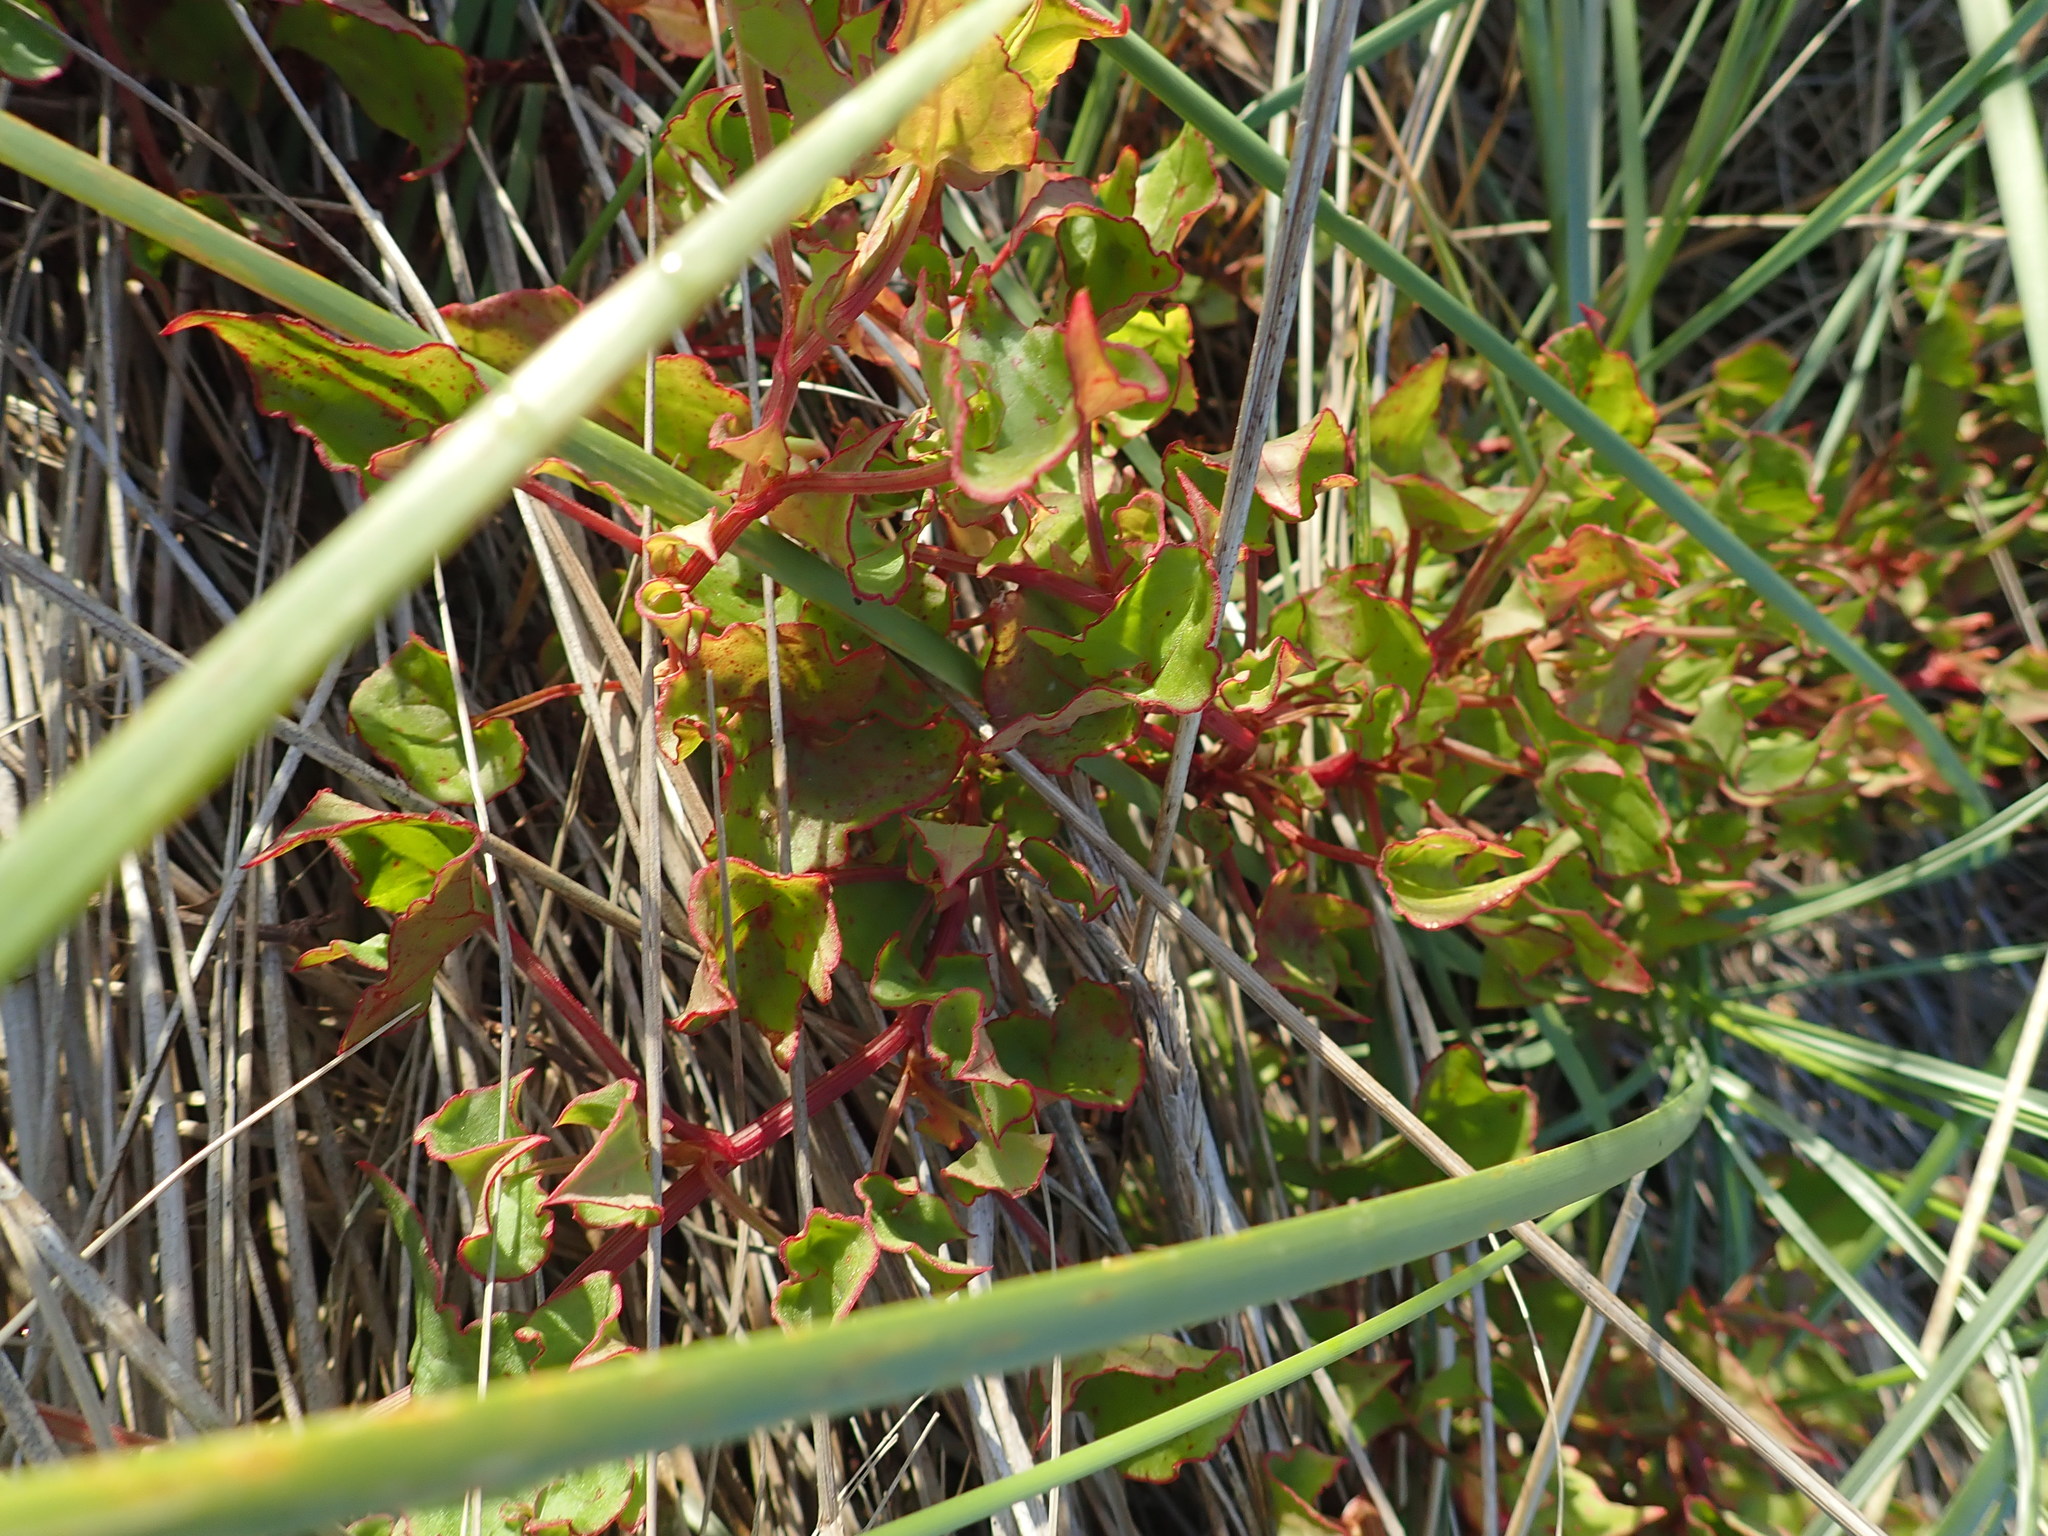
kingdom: Plantae
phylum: Tracheophyta
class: Magnoliopsida
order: Caryophyllales
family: Polygonaceae
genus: Rumex
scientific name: Rumex sagittatus
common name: Climbing dock
